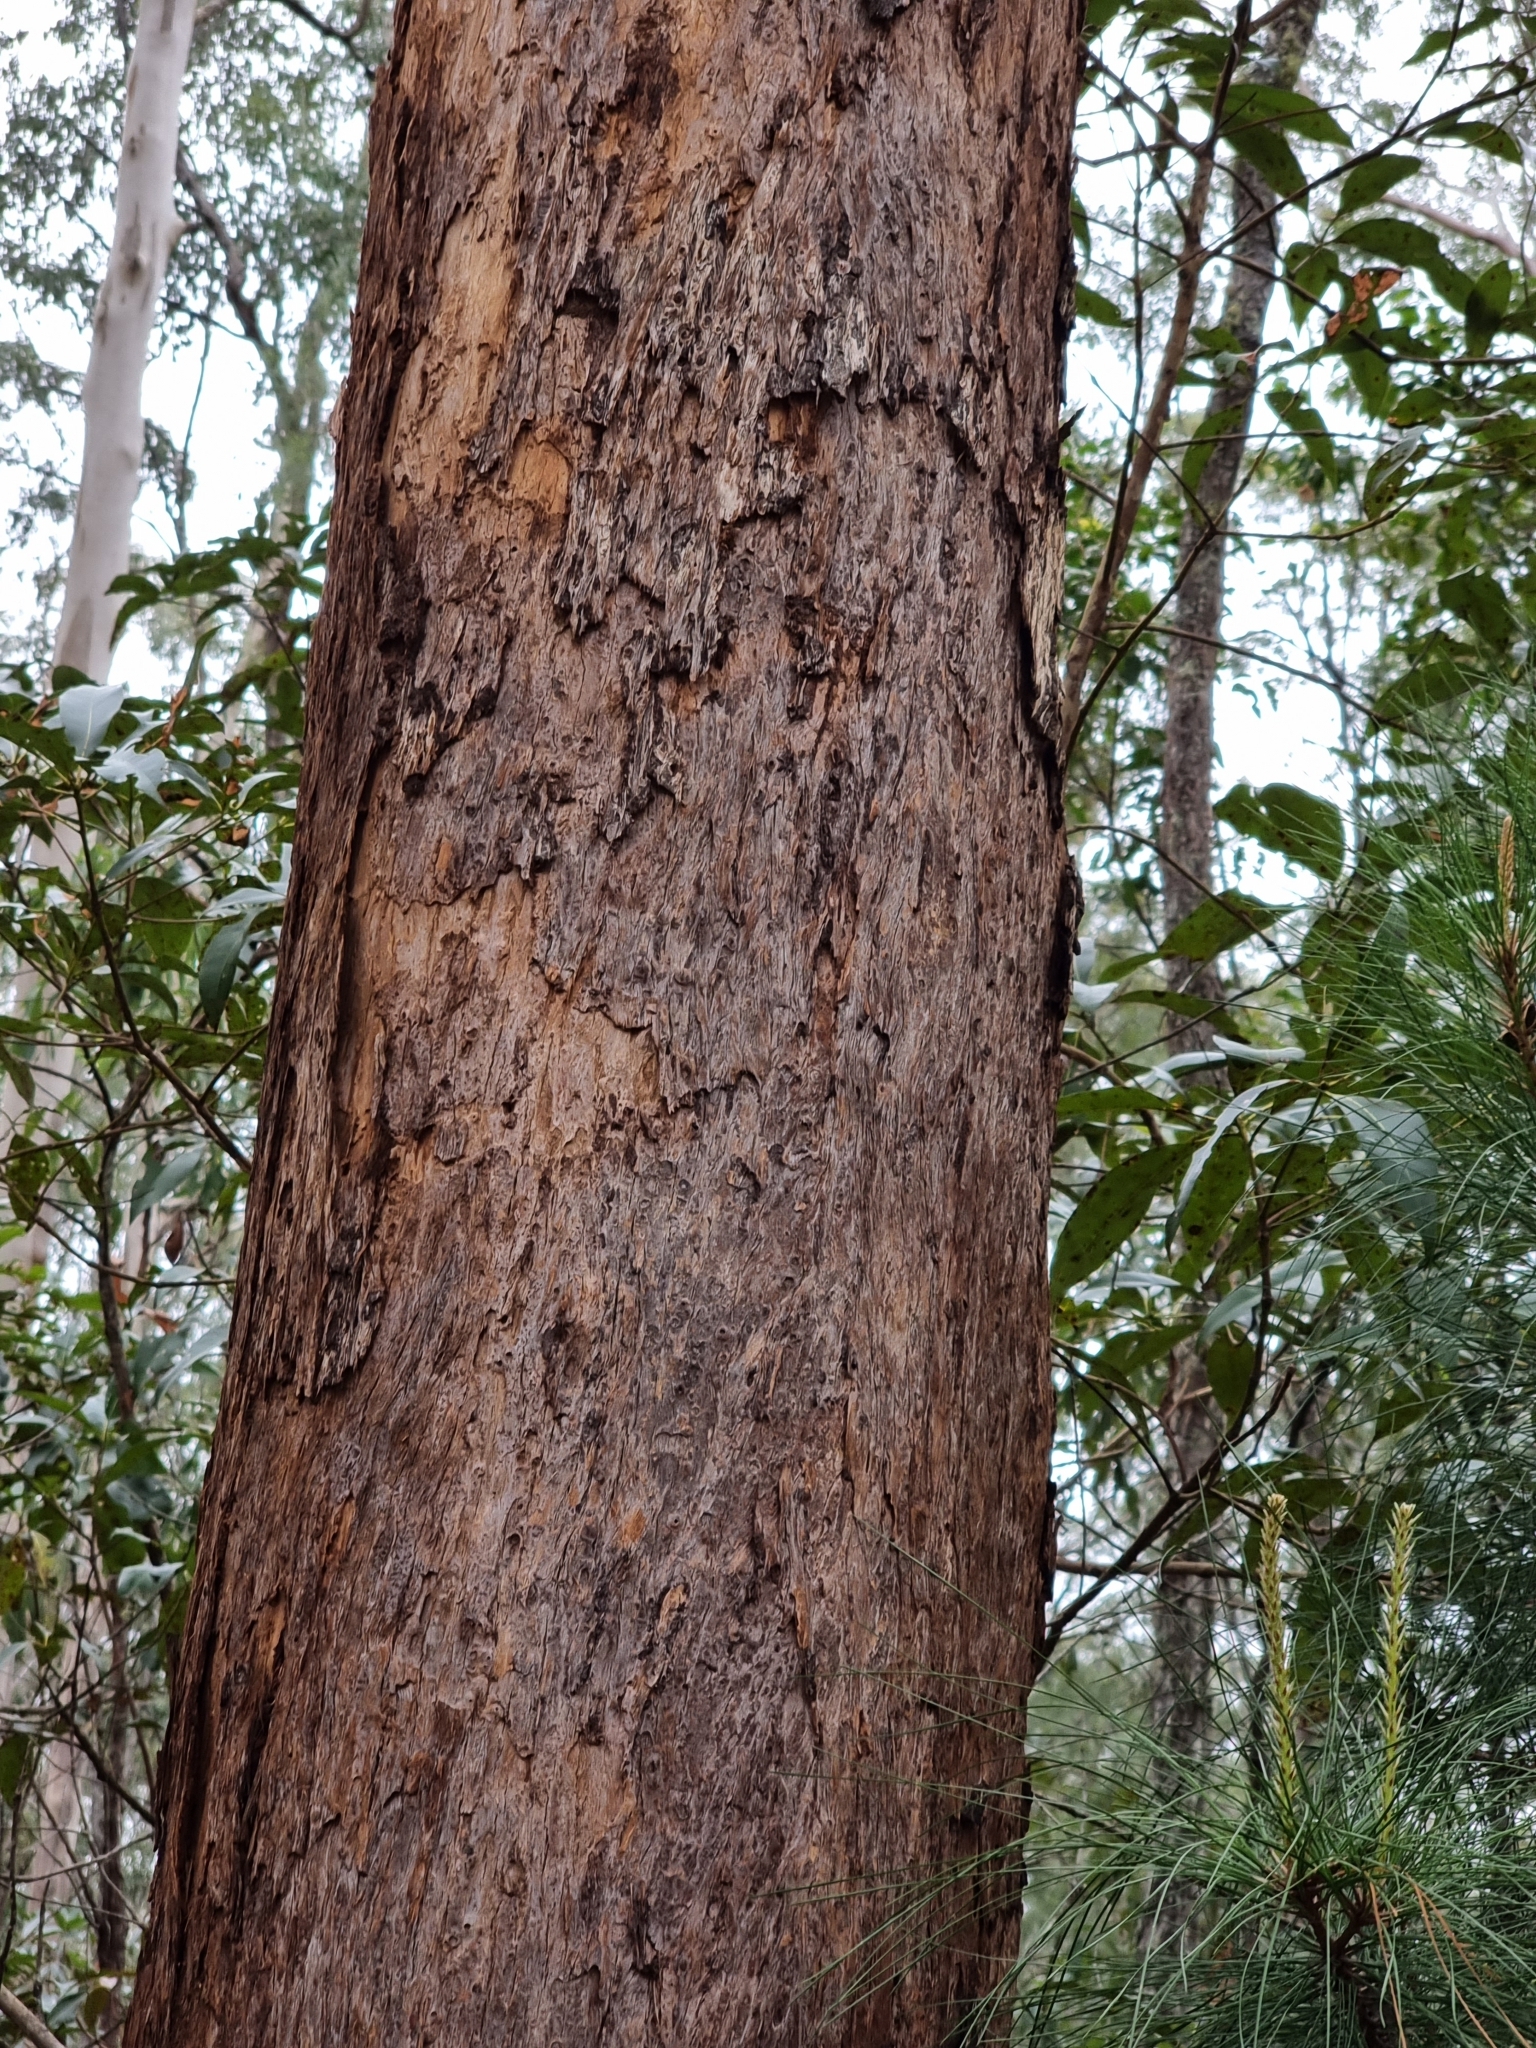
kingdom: Plantae
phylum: Tracheophyta
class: Magnoliopsida
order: Myrtales
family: Myrtaceae
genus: Eucalyptus
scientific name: Eucalyptus microcorys
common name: Tallowwood
